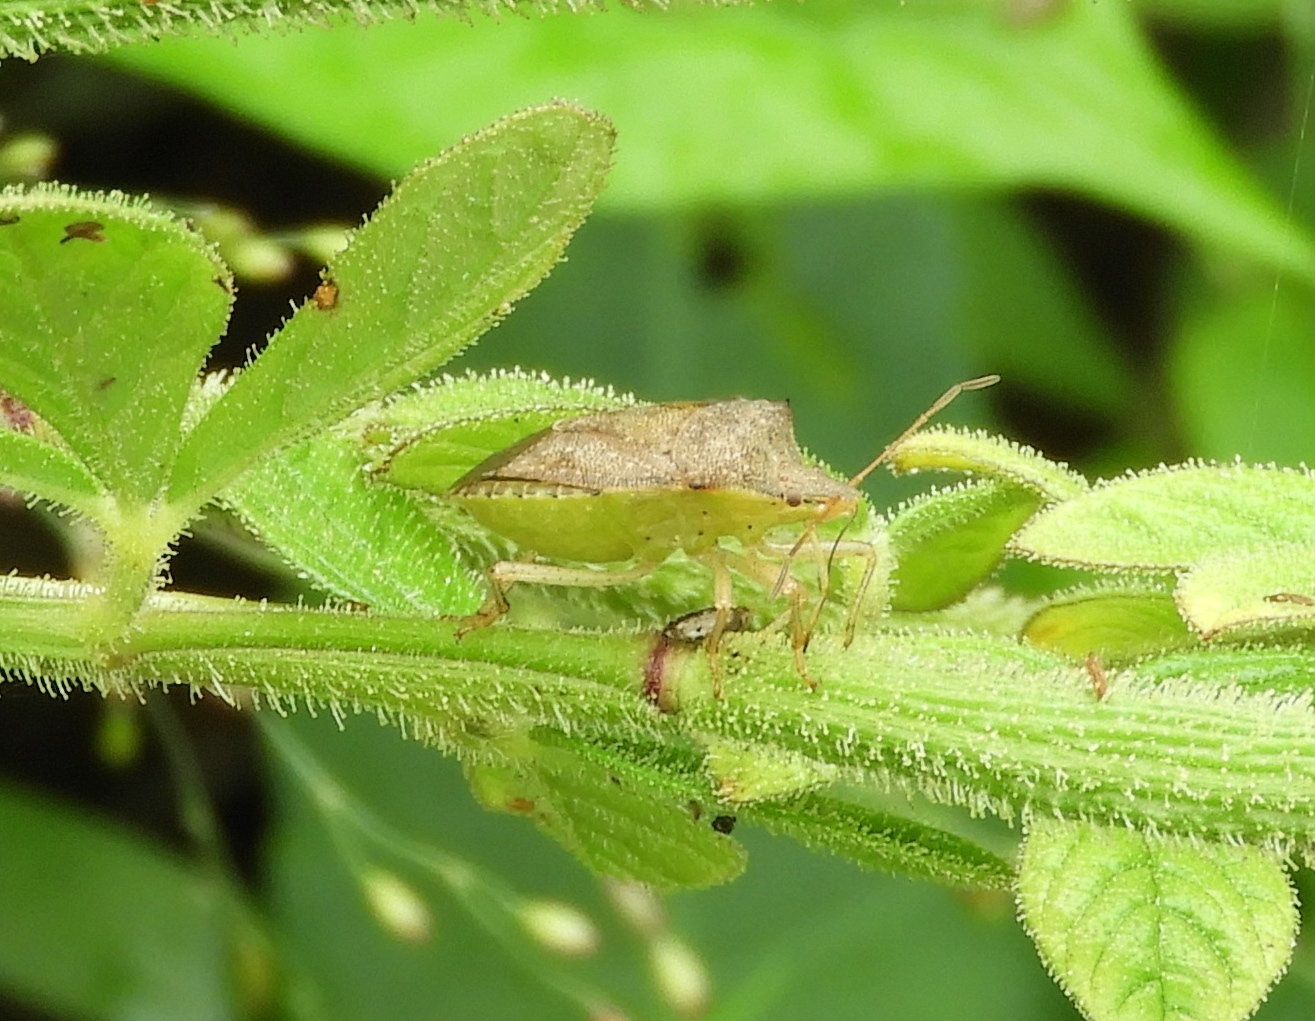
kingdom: Animalia
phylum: Arthropoda
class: Insecta
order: Hemiptera
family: Pentatomidae
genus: Euschistus
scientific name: Euschistus
